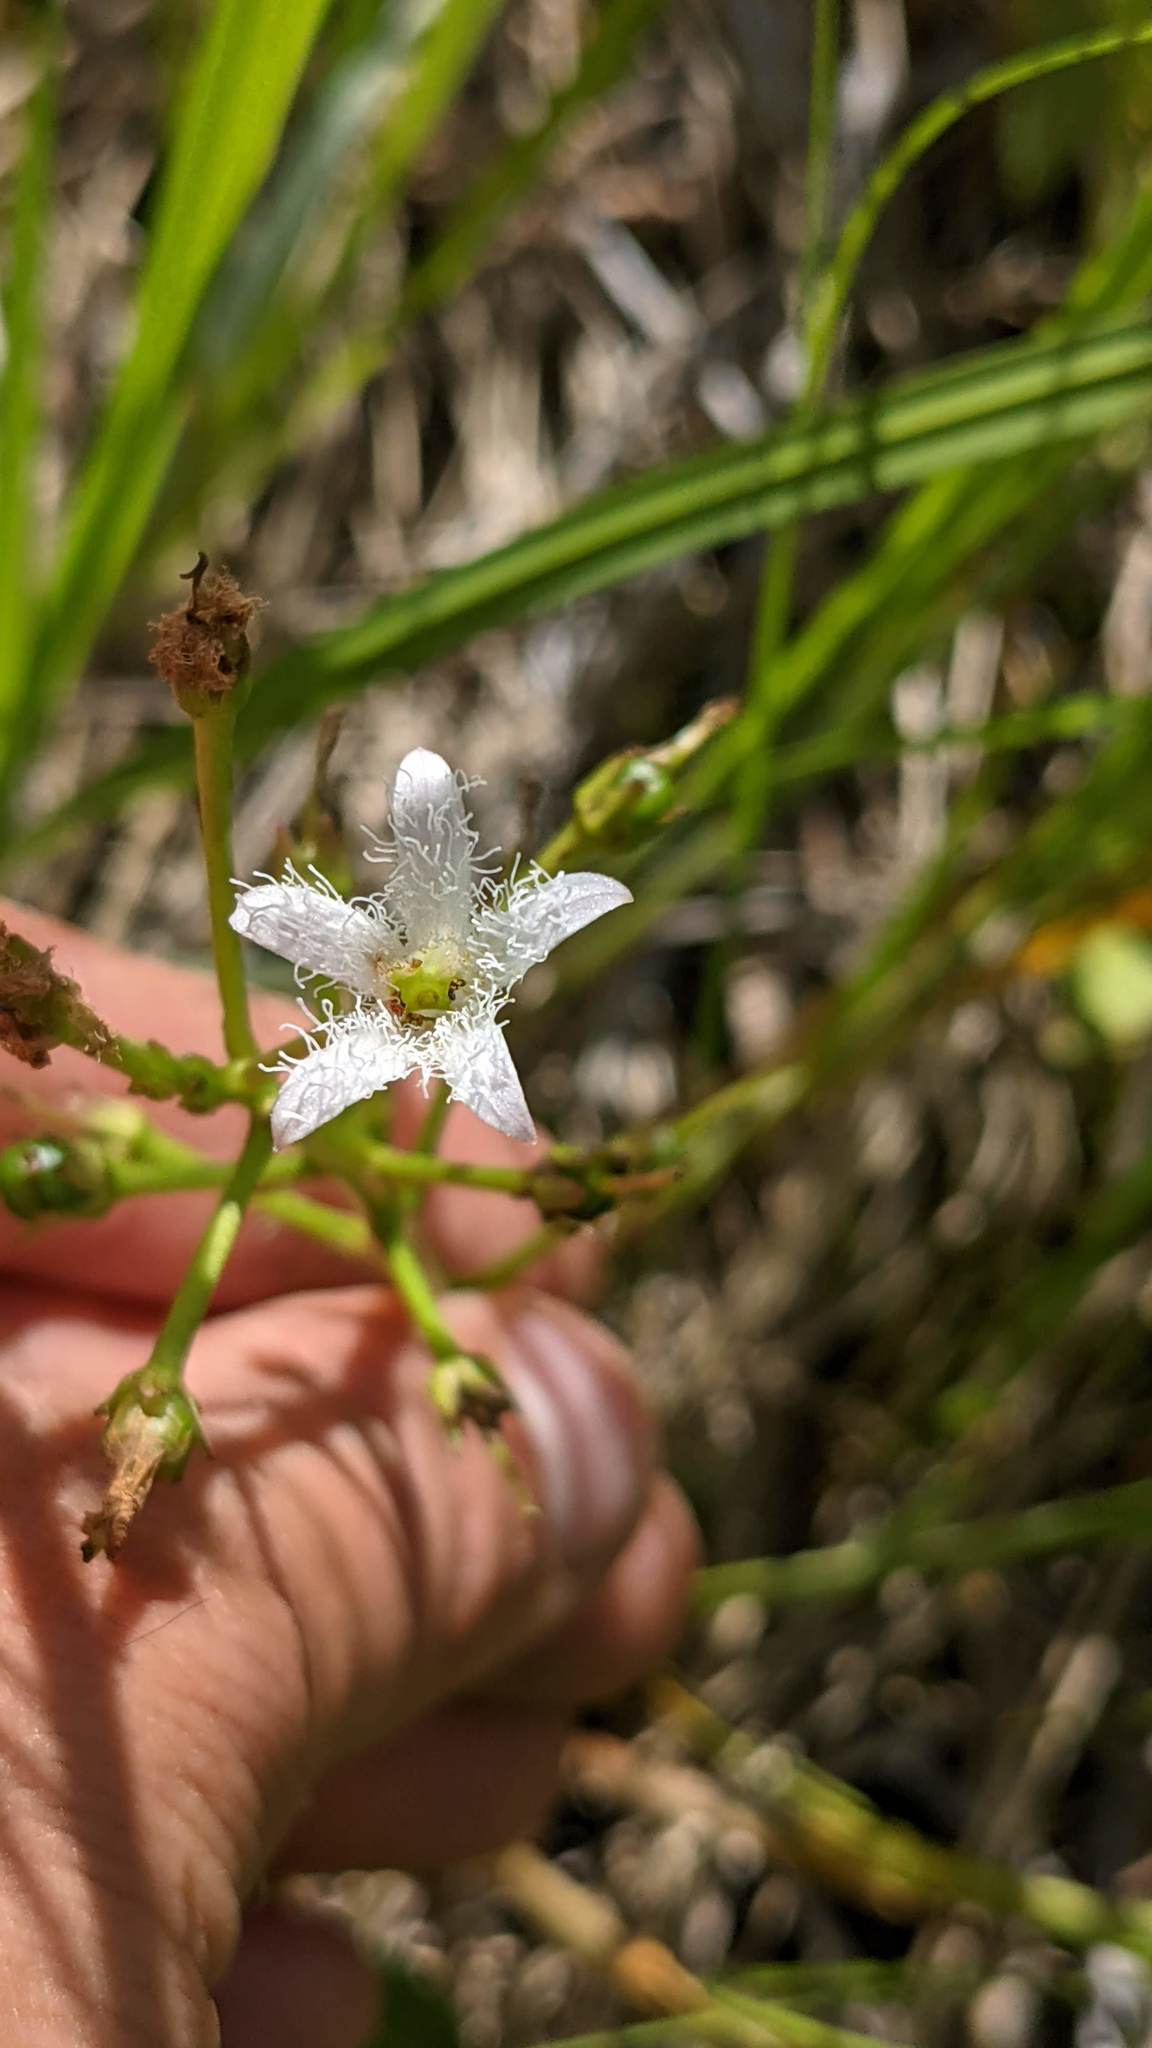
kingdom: Plantae
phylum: Tracheophyta
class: Magnoliopsida
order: Asterales
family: Menyanthaceae
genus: Menyanthes
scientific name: Menyanthes trifoliata
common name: Bogbean
